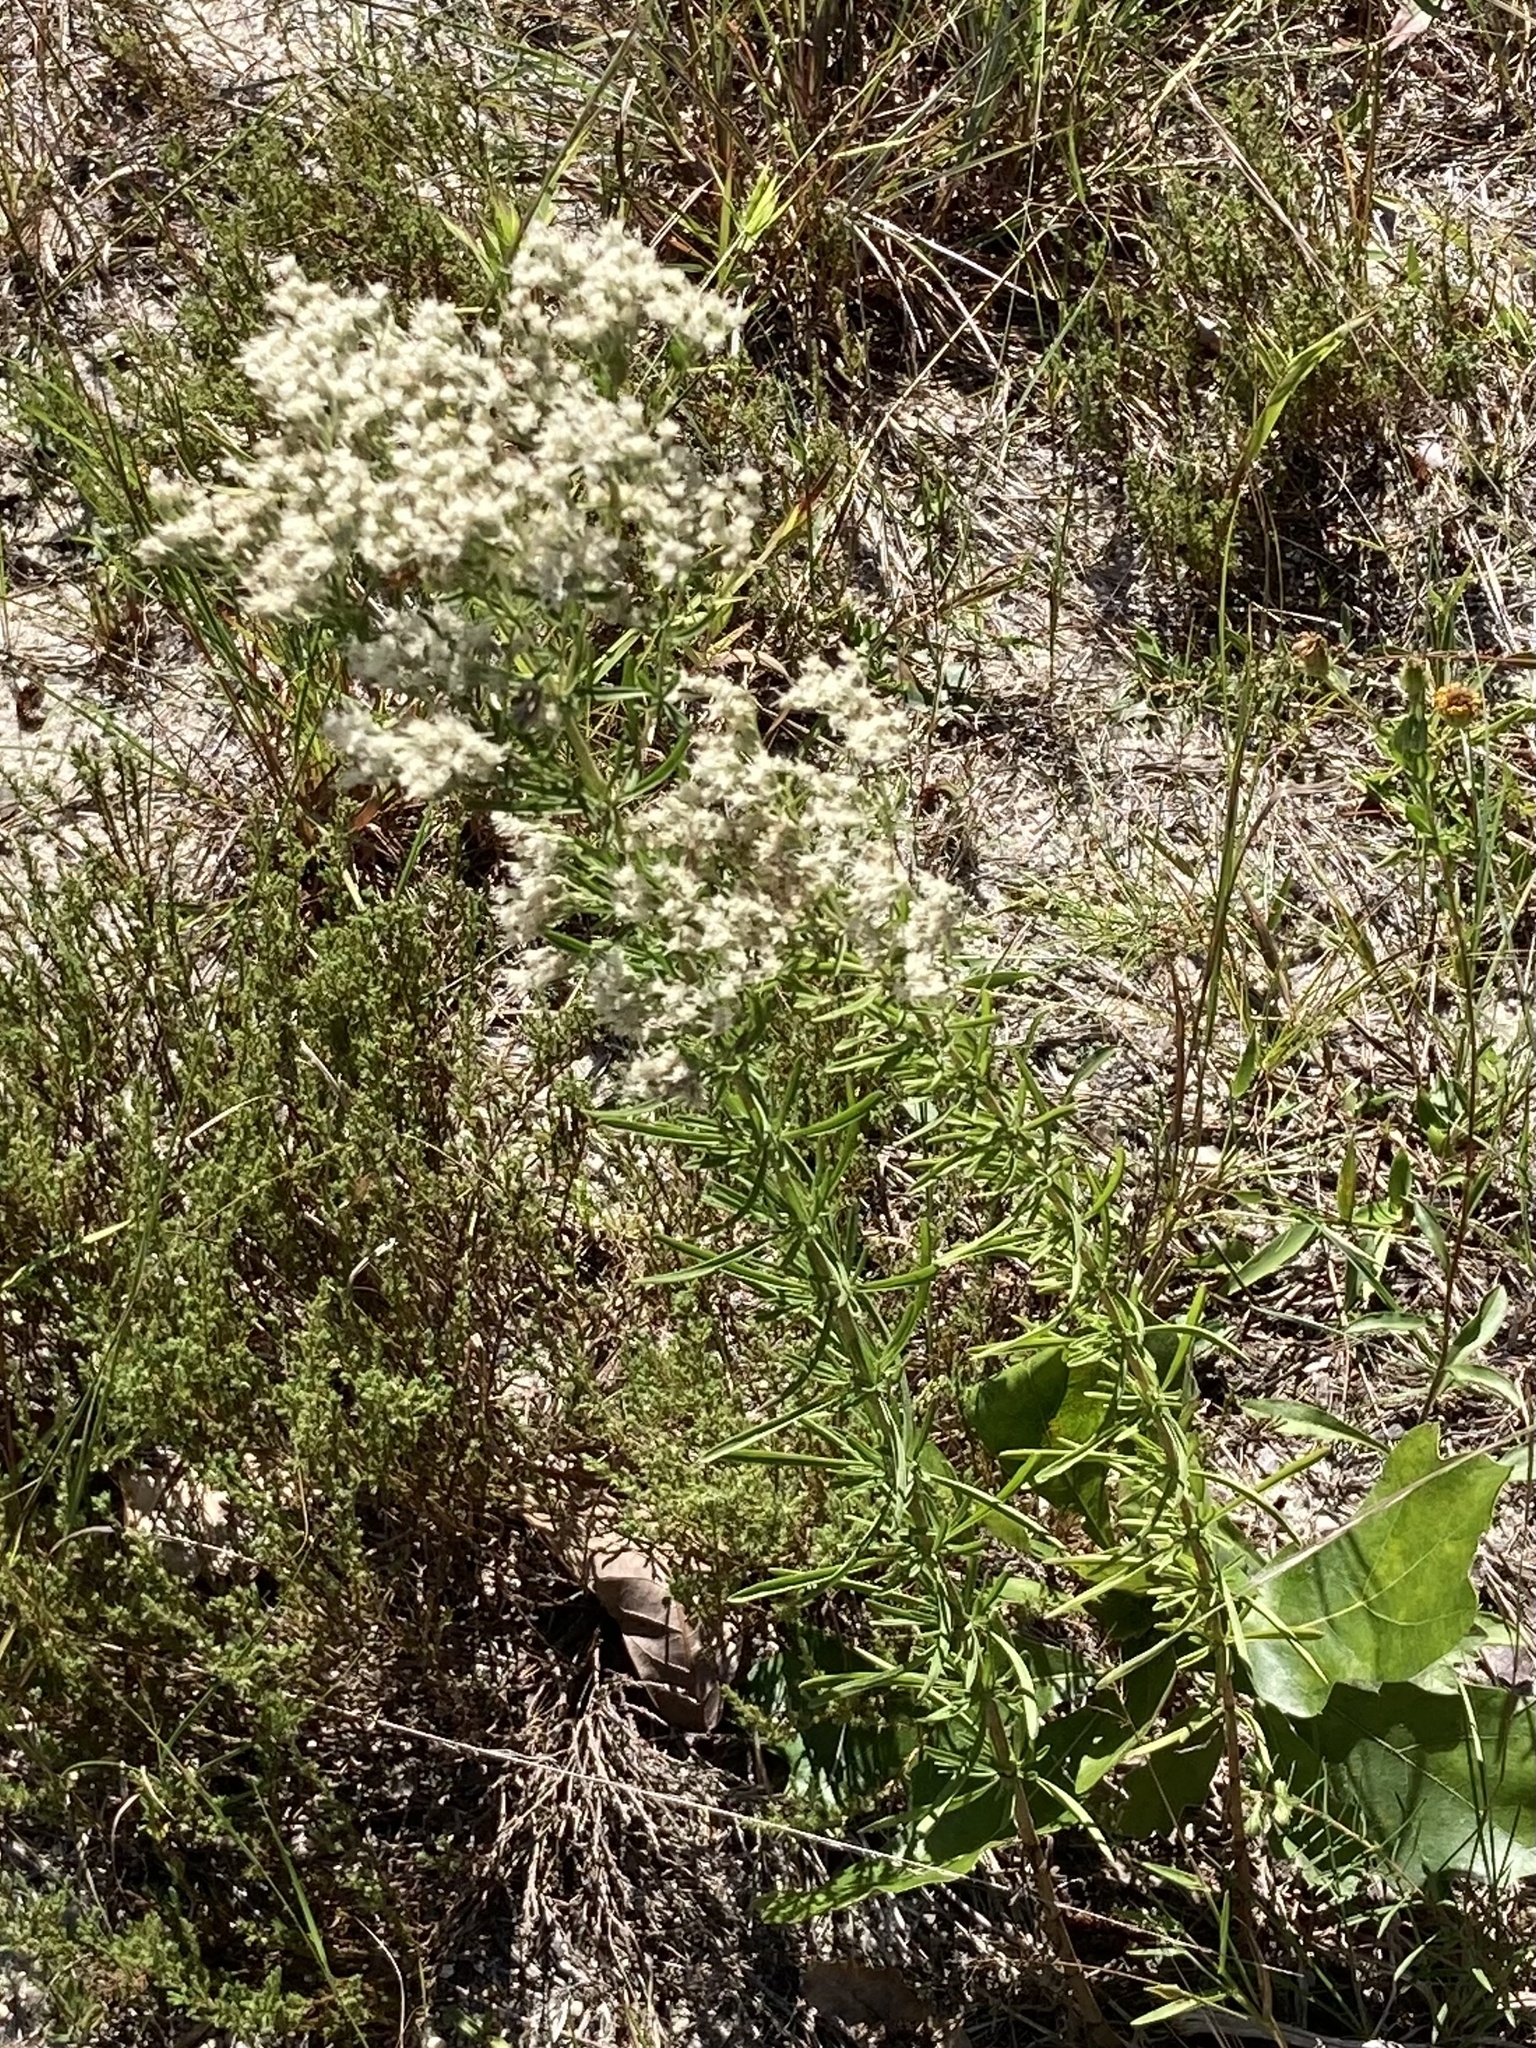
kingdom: Plantae
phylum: Tracheophyta
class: Magnoliopsida
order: Asterales
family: Asteraceae
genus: Eupatorium
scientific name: Eupatorium hyssopifolium
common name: Hyssop-leaf thoroughwort
